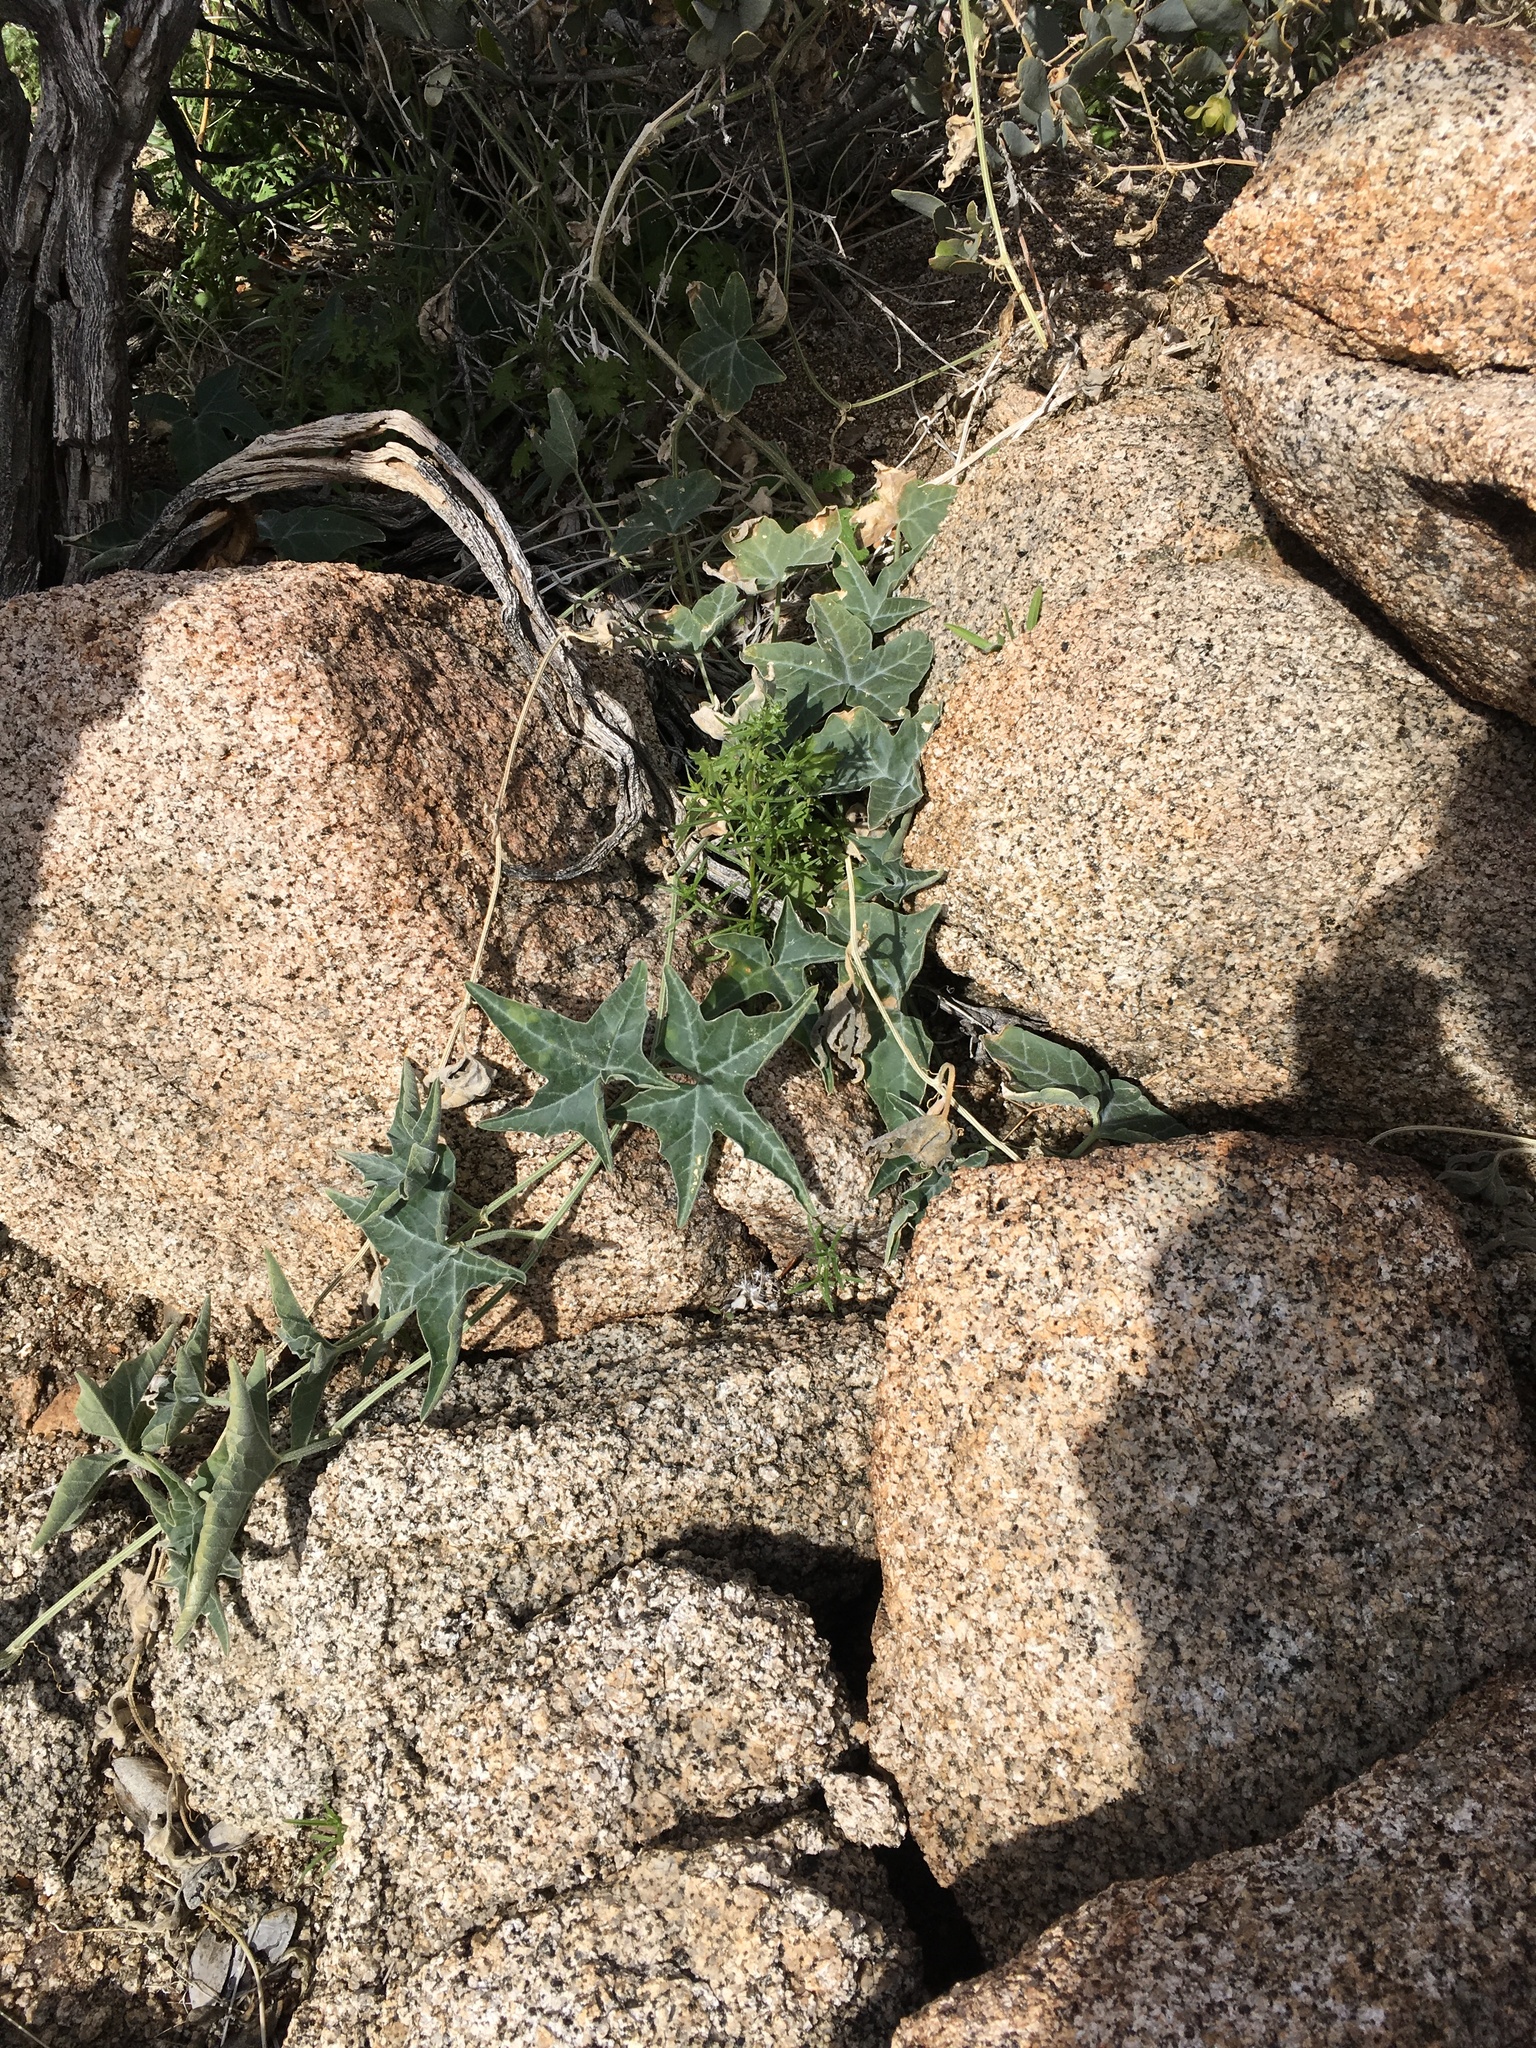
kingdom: Plantae
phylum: Tracheophyta
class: Magnoliopsida
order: Cucurbitales
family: Cucurbitaceae
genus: Cucurbita
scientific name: Cucurbita palmata
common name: Coyote-melon
